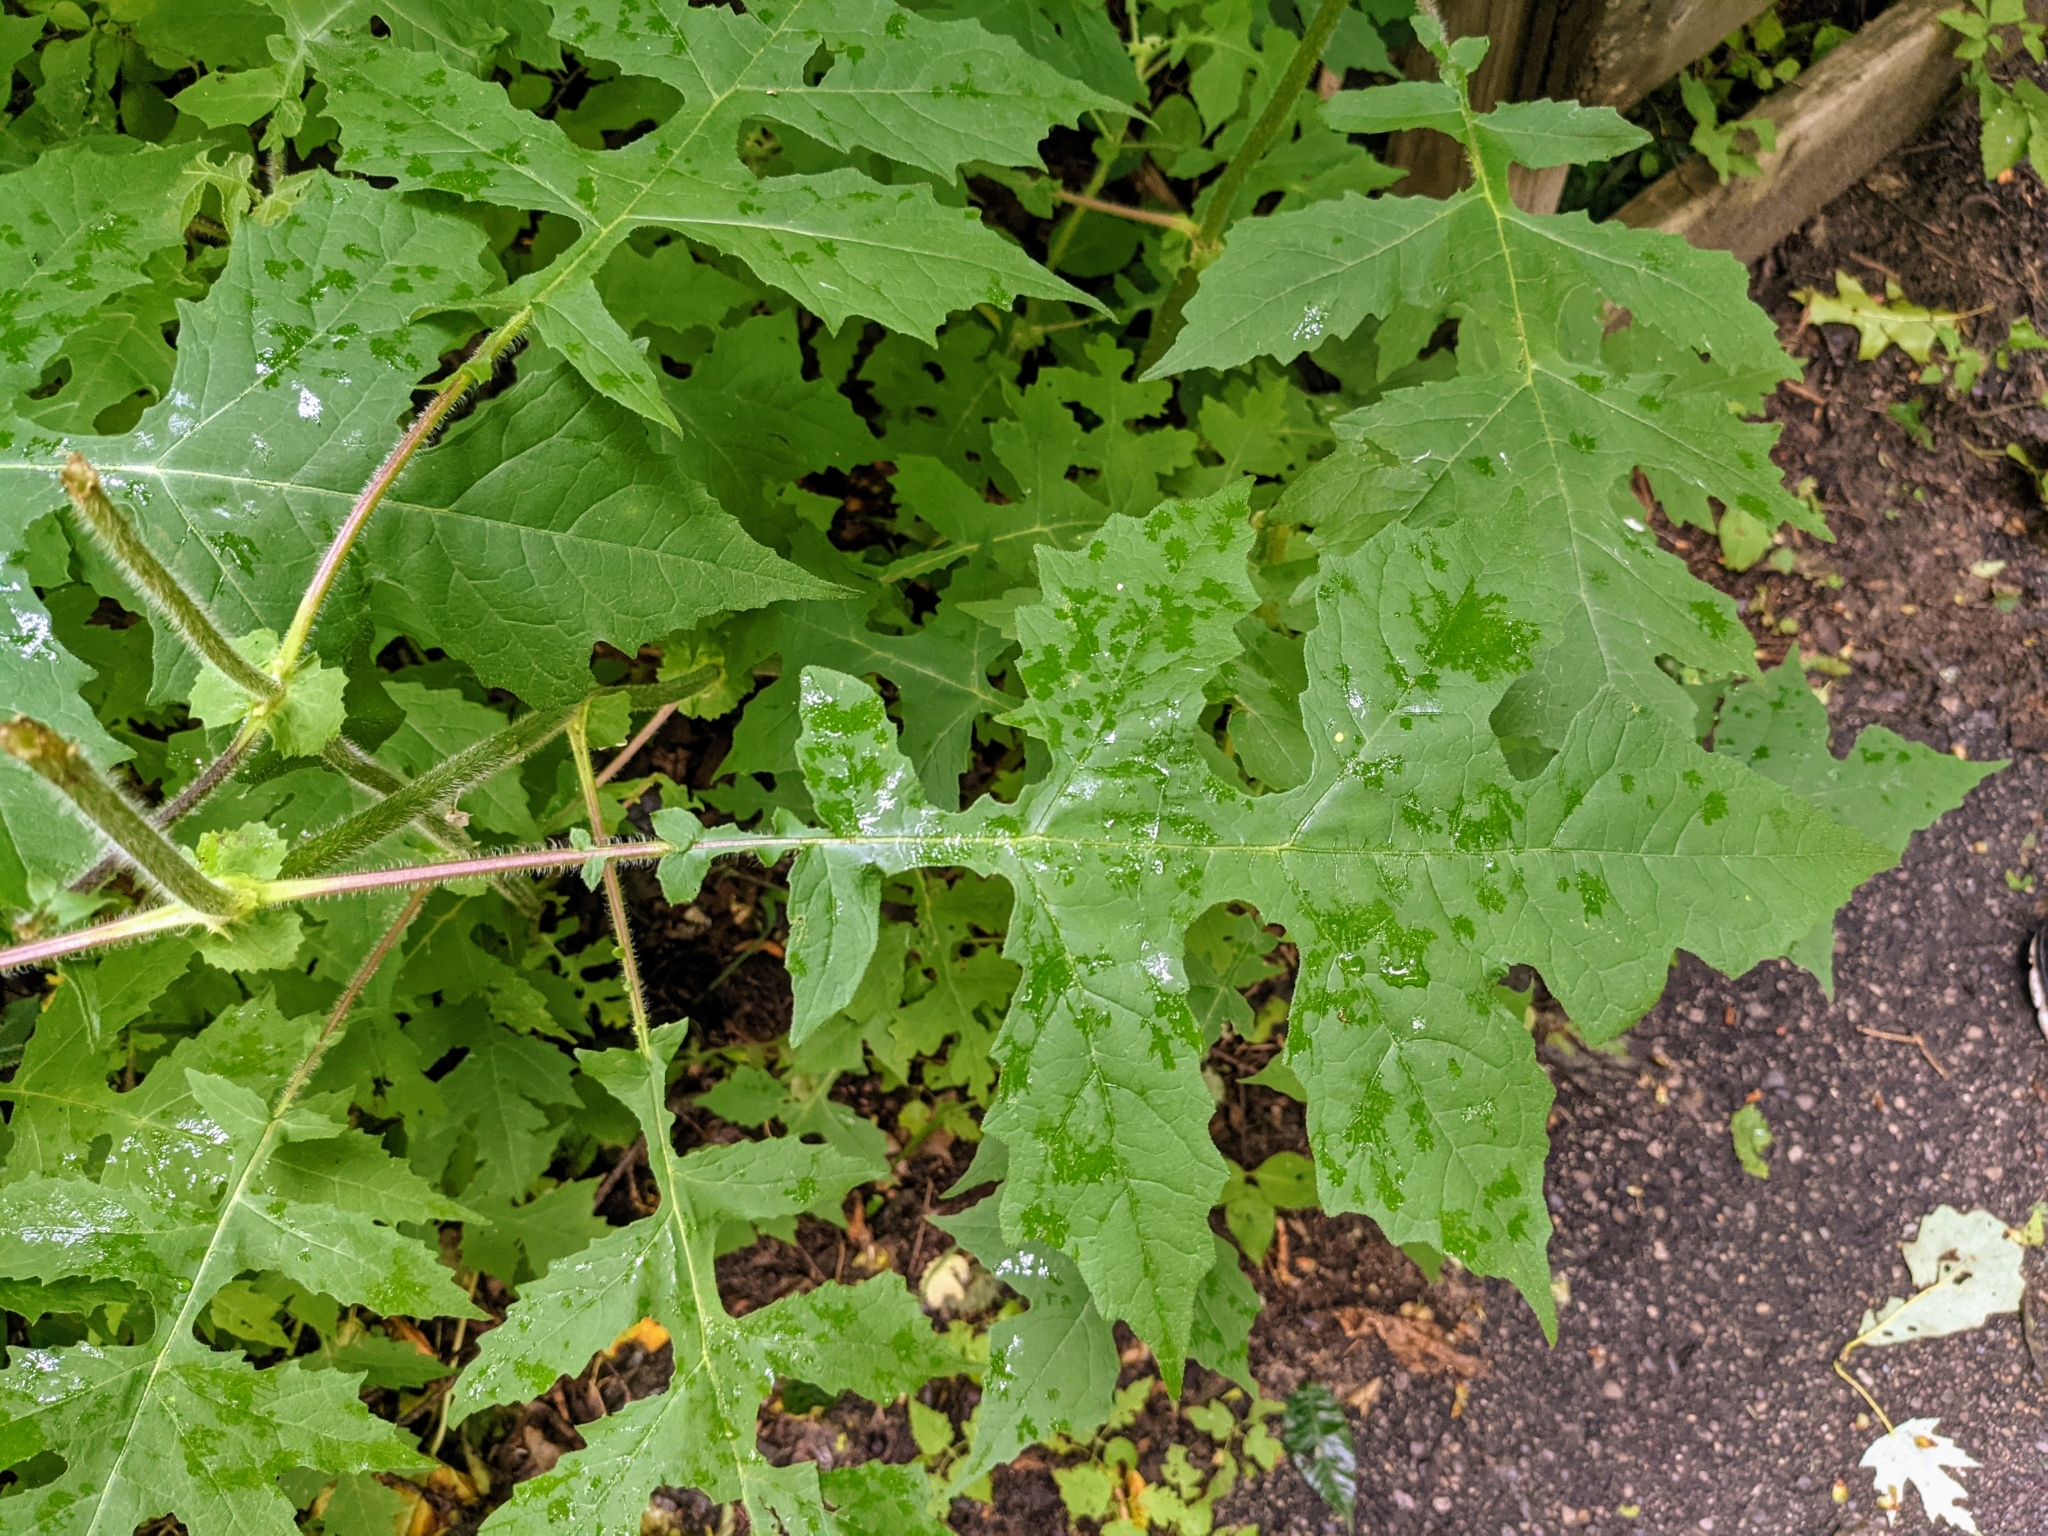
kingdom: Plantae
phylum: Tracheophyta
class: Magnoliopsida
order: Asterales
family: Asteraceae
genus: Polymnia
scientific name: Polymnia canadensis
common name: Pale-flowered leafcup
